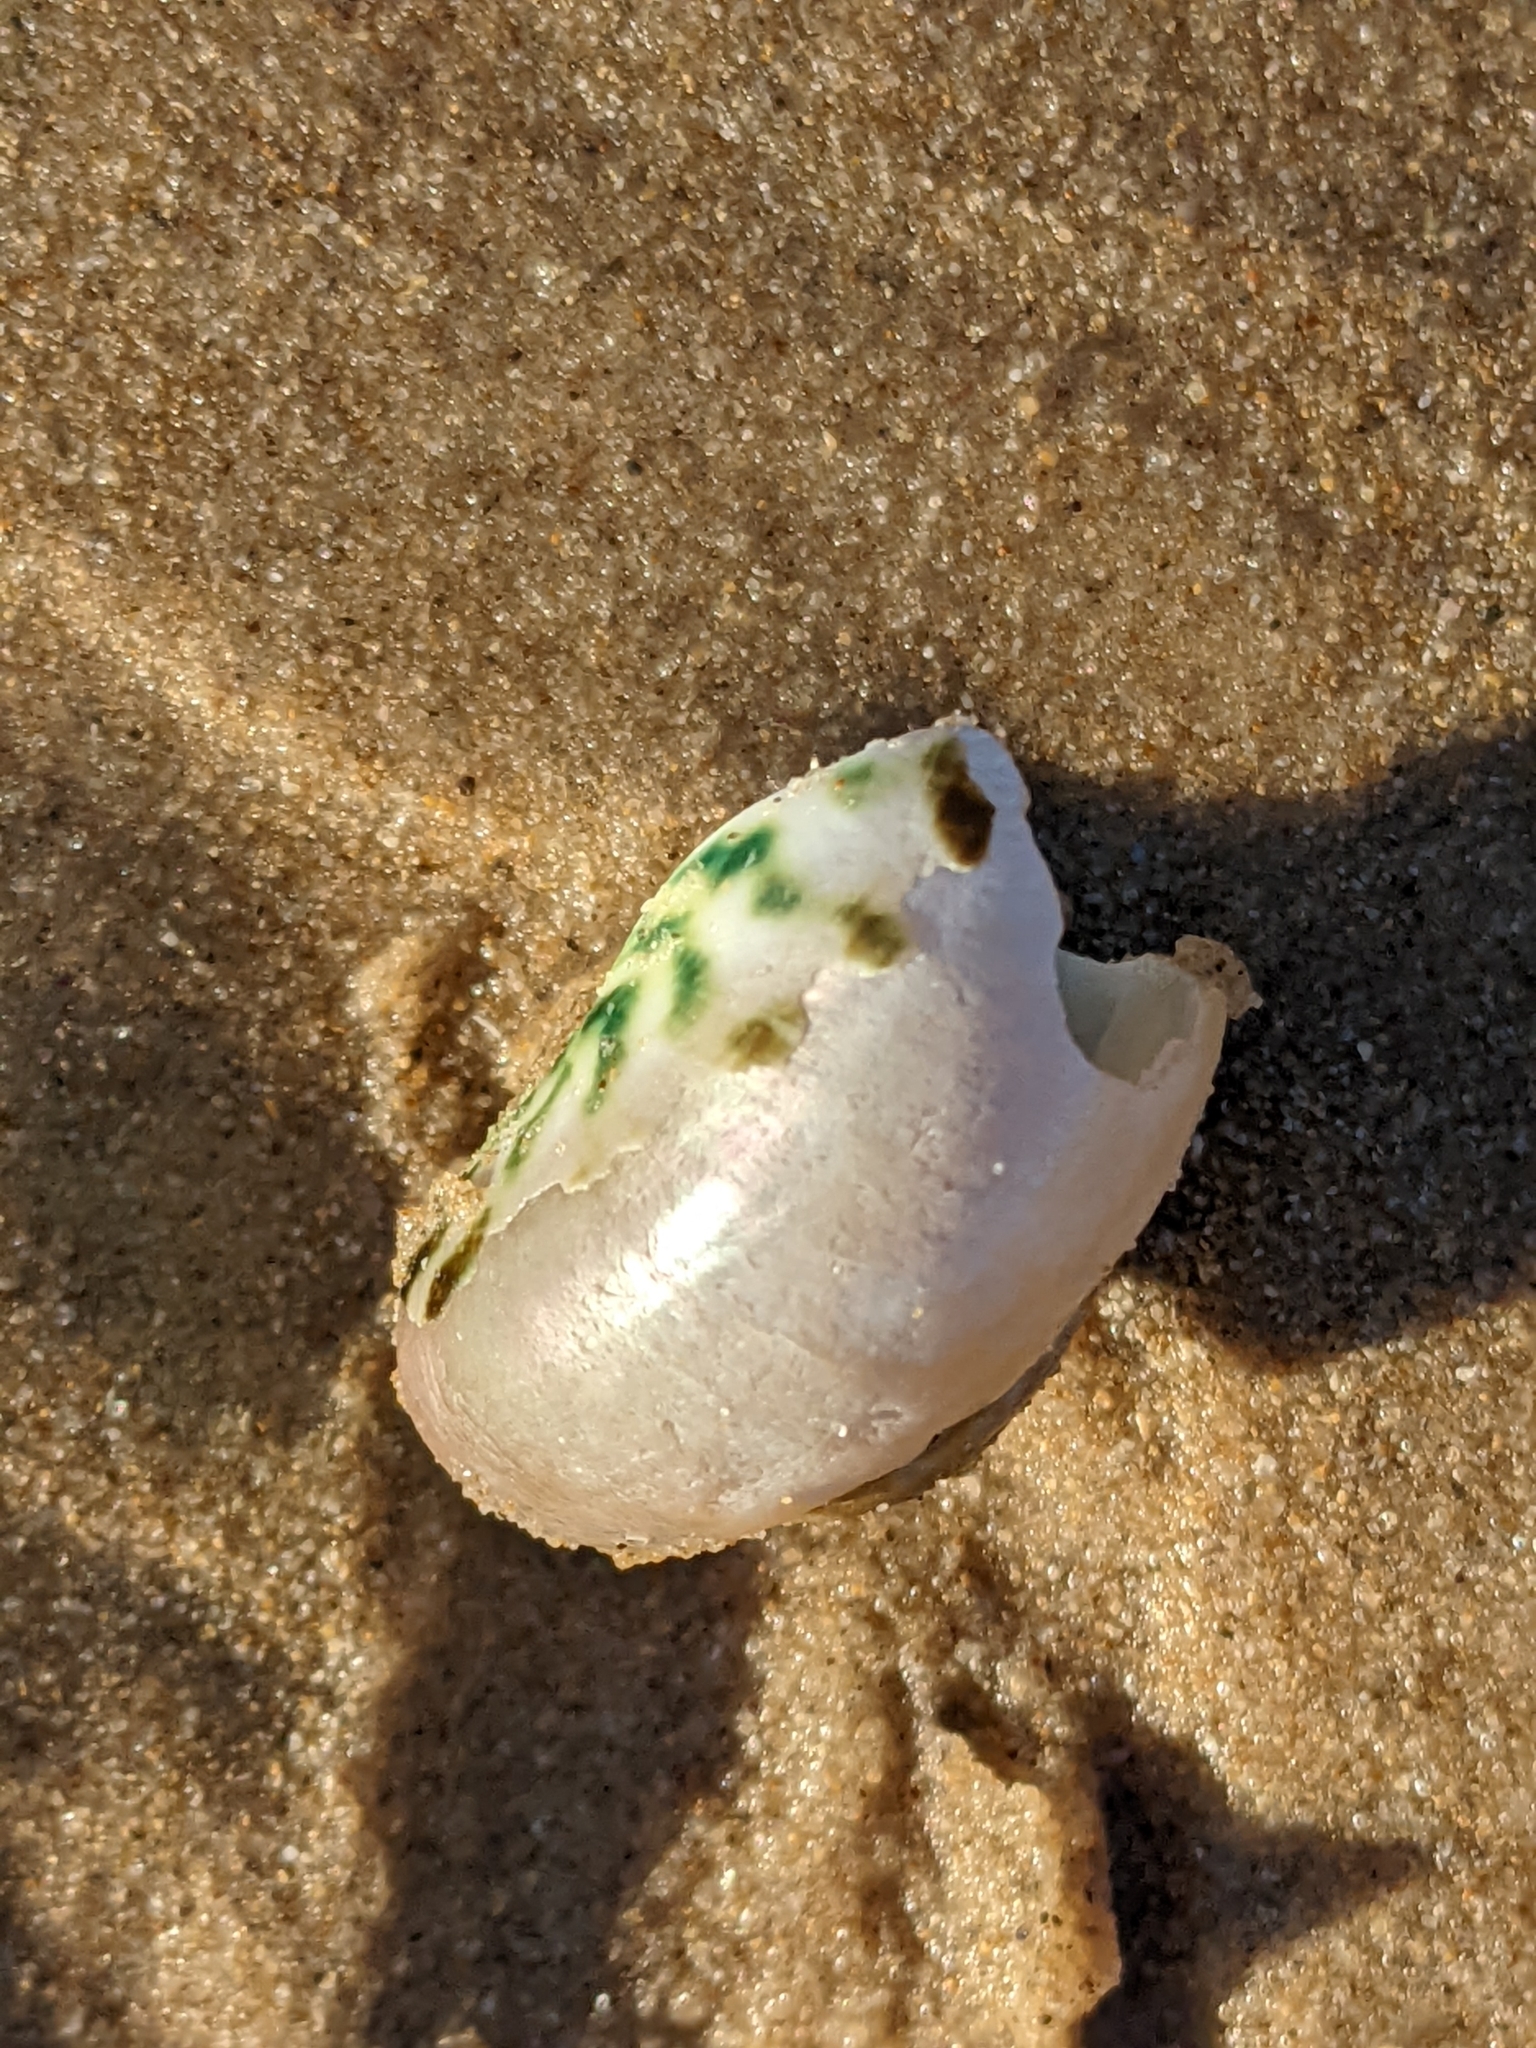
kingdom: Animalia
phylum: Mollusca
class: Gastropoda
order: Trochida
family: Turbinidae
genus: Lunella
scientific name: Lunella undulata
